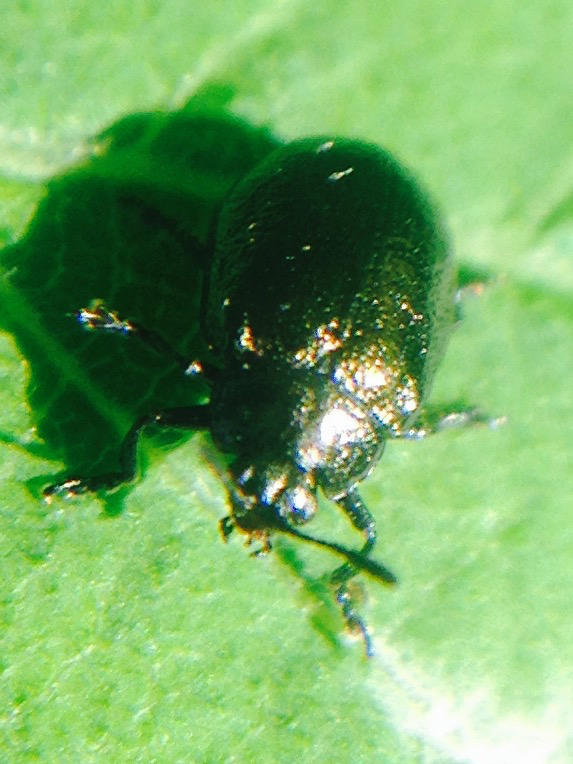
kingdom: Animalia
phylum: Arthropoda
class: Insecta
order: Coleoptera
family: Chrysomelidae
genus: Plagiodera
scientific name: Plagiodera californica
